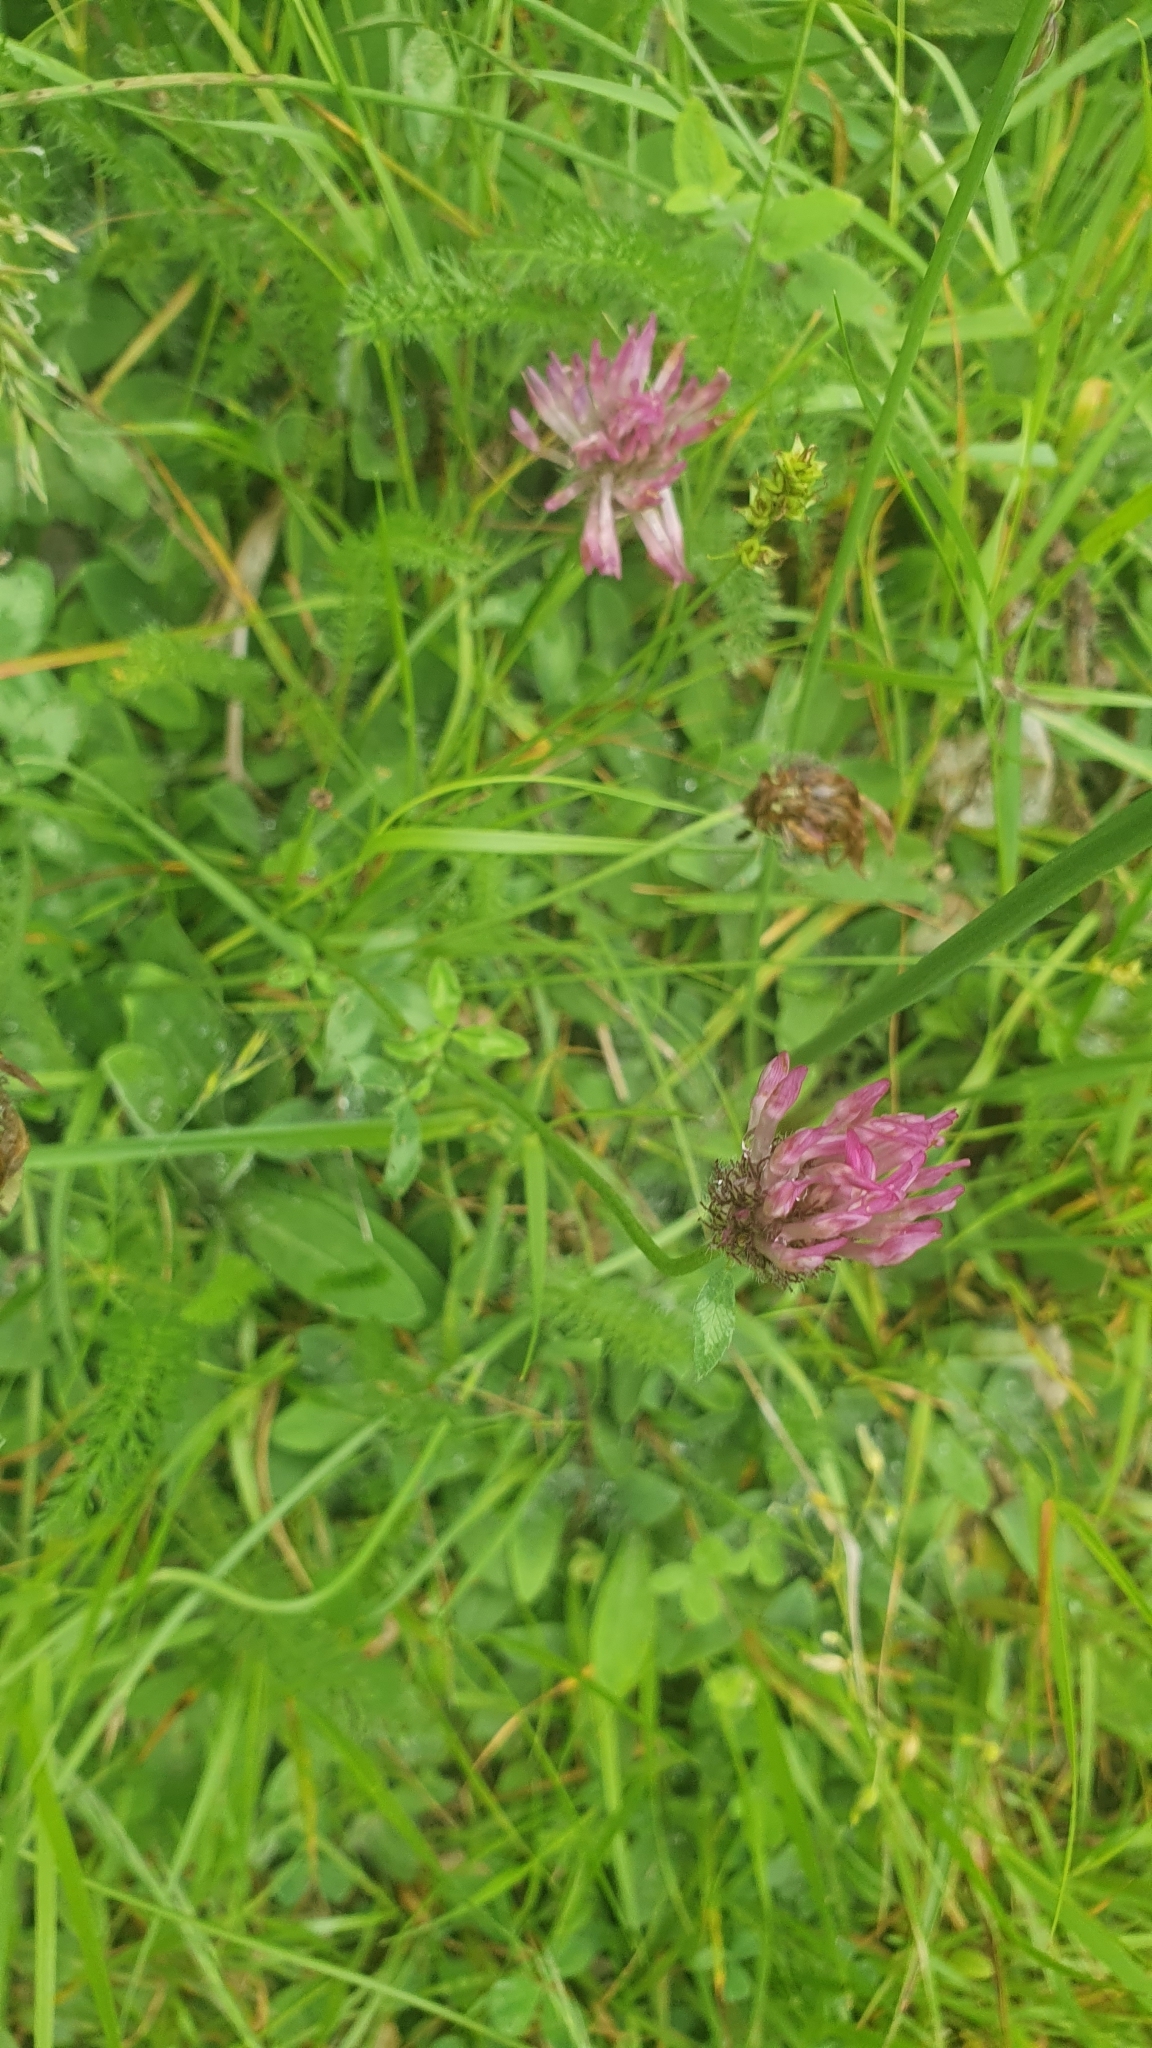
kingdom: Plantae
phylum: Tracheophyta
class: Magnoliopsida
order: Fabales
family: Fabaceae
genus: Trifolium
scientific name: Trifolium pratense
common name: Red clover
